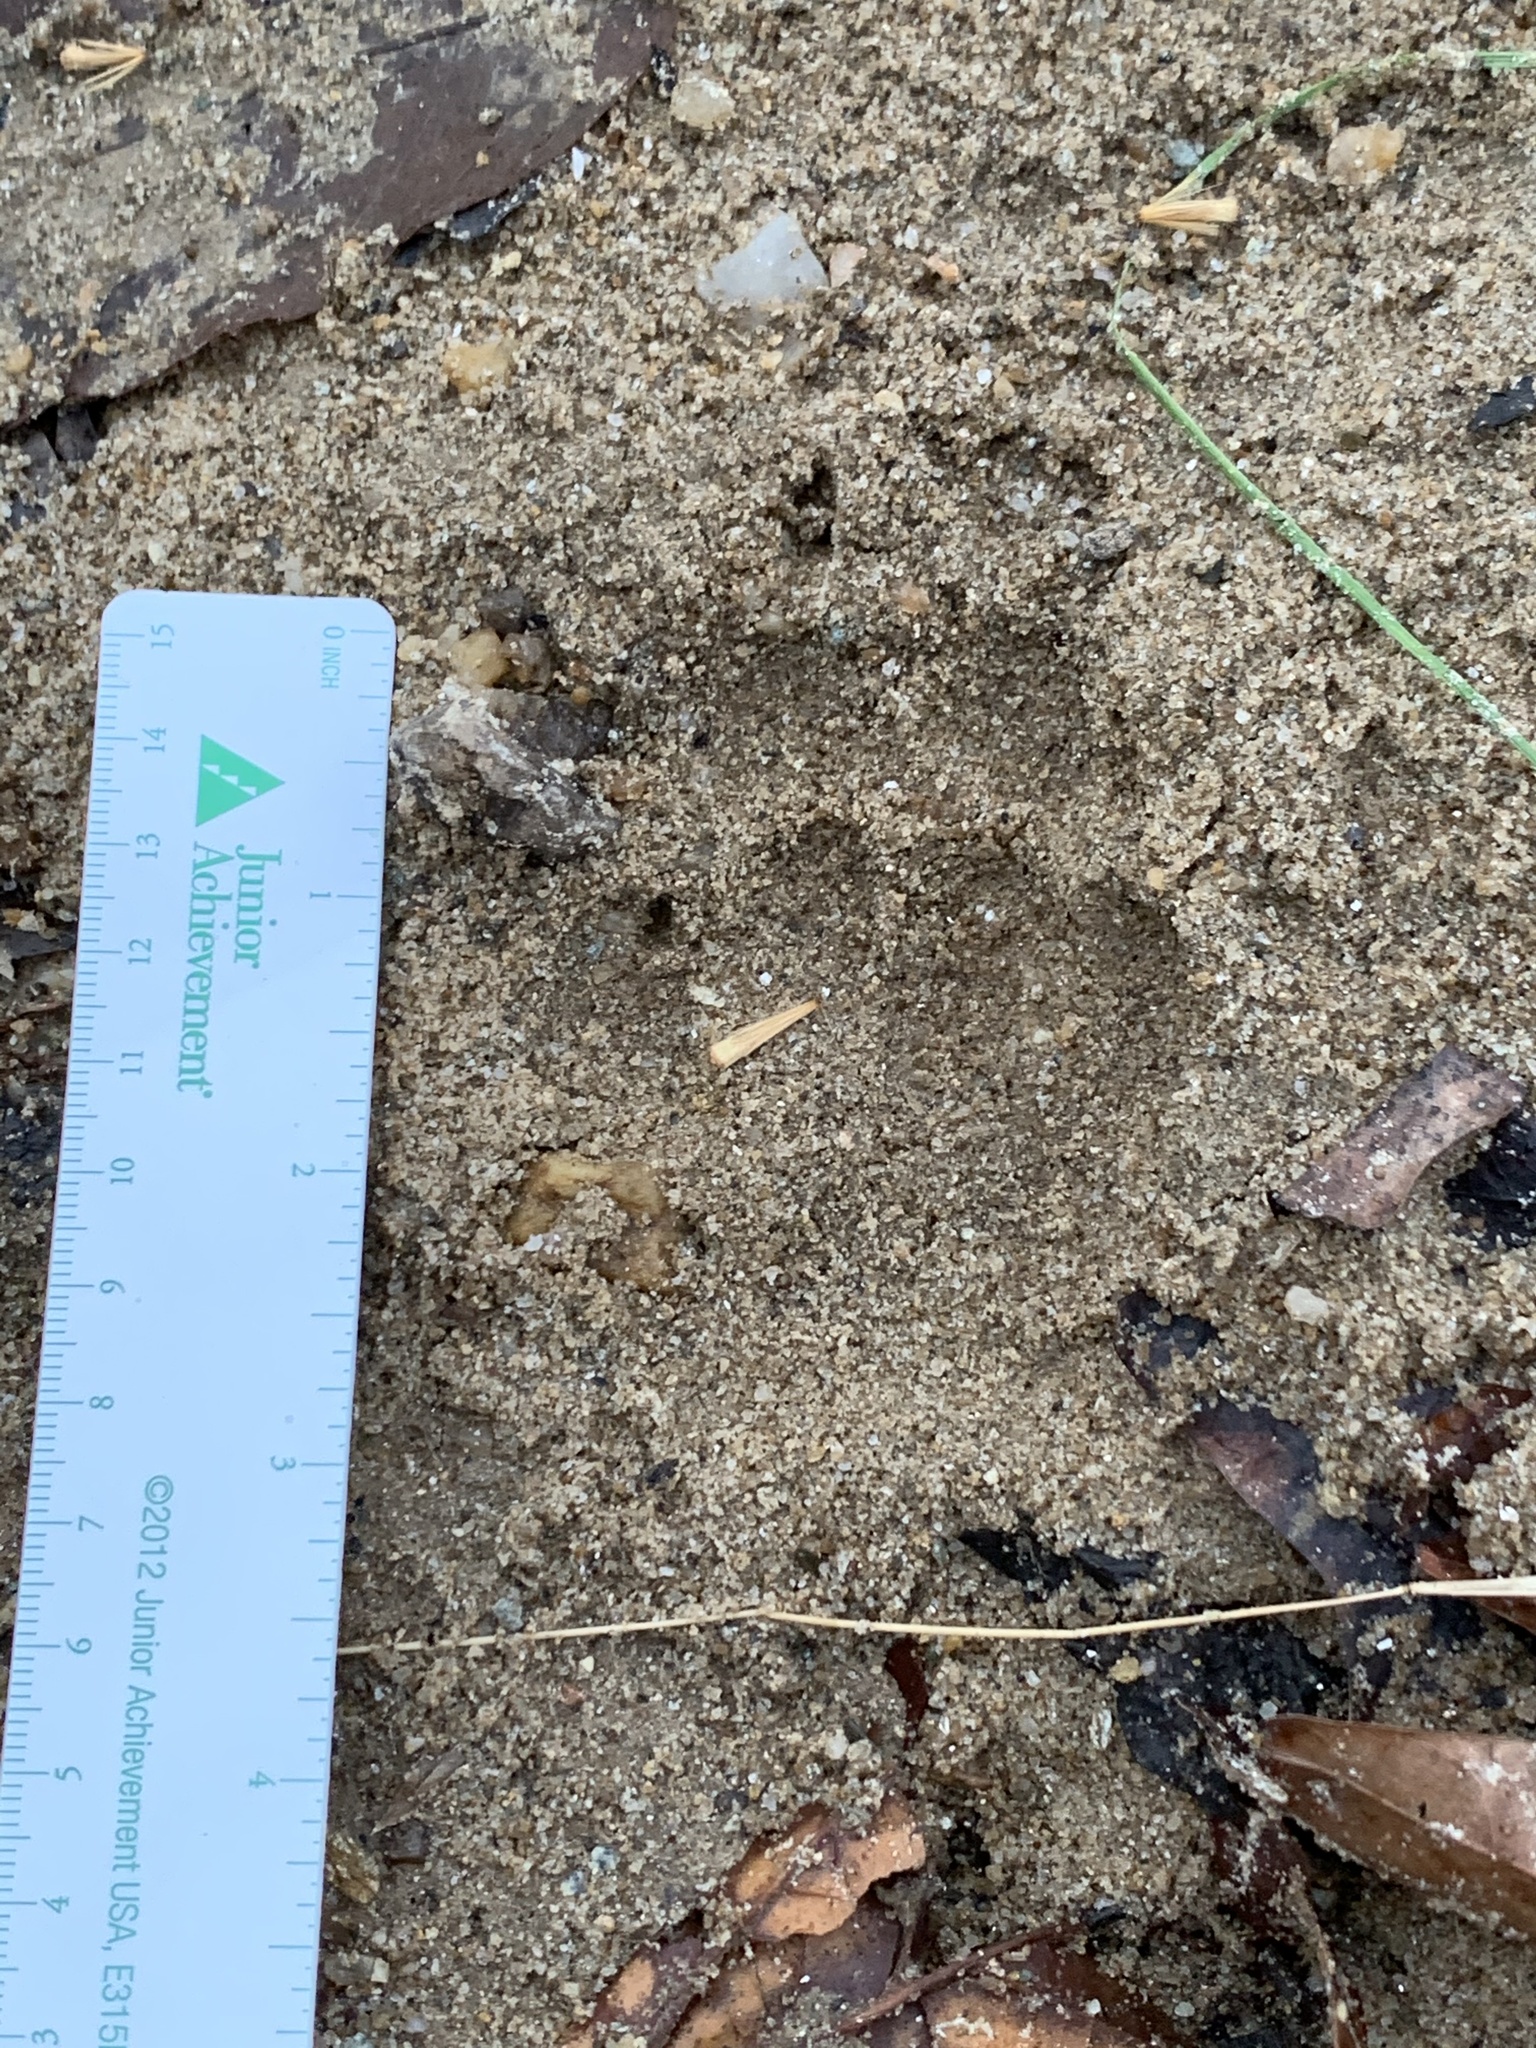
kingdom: Animalia
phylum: Chordata
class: Mammalia
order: Carnivora
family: Mephitidae
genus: Mephitis
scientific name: Mephitis mephitis
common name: Striped skunk
